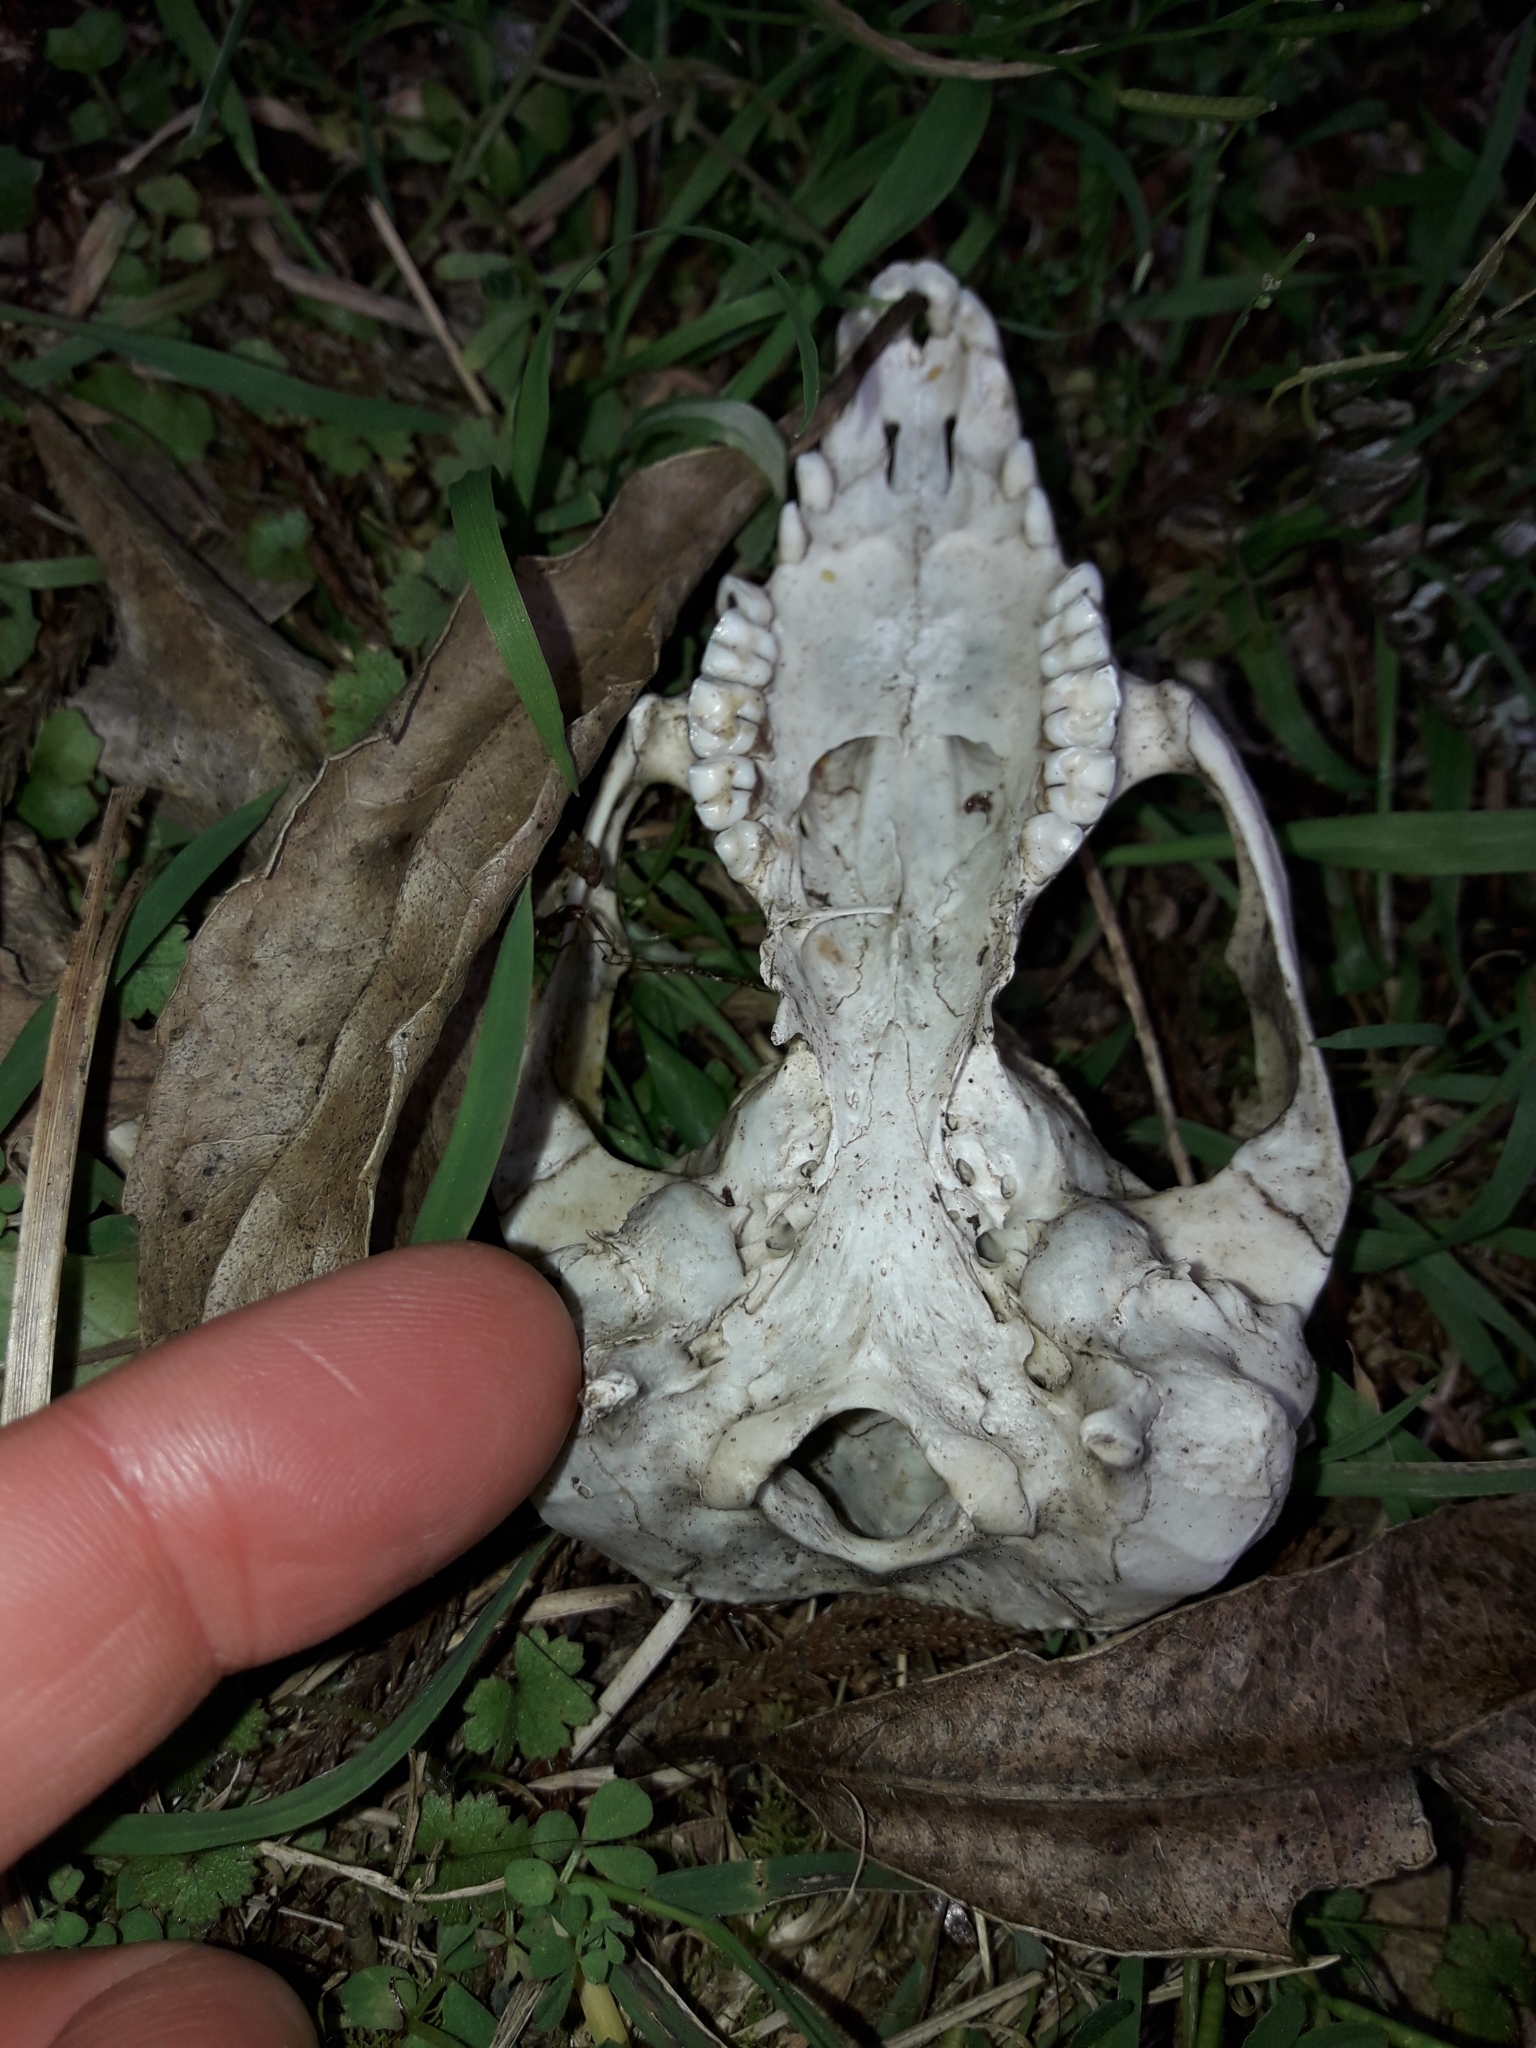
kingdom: Animalia
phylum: Chordata
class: Mammalia
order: Diprotodontia
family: Phalangeridae
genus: Trichosurus
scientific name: Trichosurus vulpecula
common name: Common brushtail
